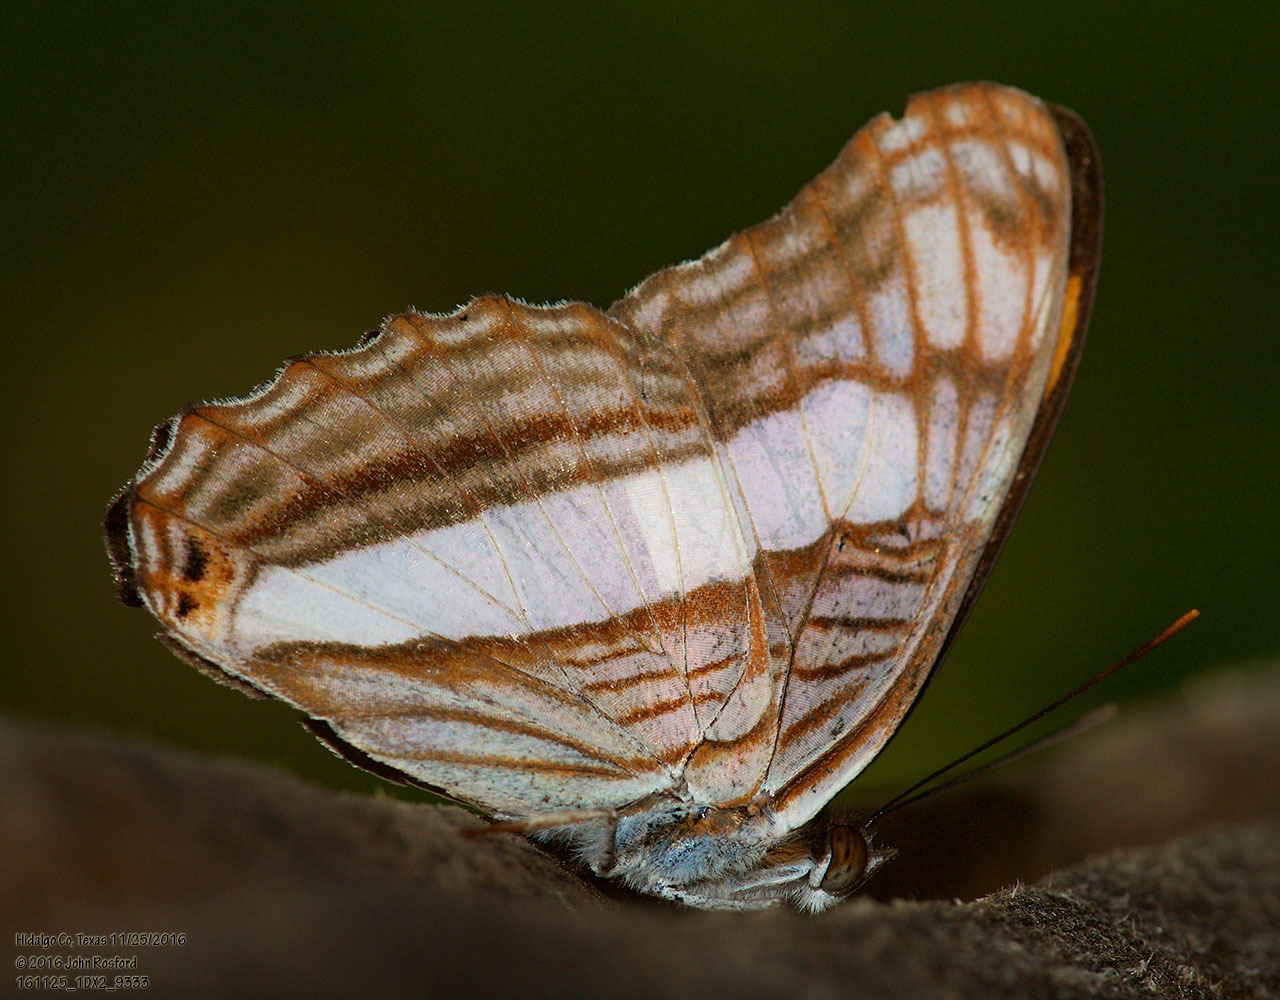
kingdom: Animalia
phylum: Arthropoda
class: Insecta
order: Lepidoptera
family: Nymphalidae
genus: Limenitis
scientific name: Limenitis Adelpha basiloides
